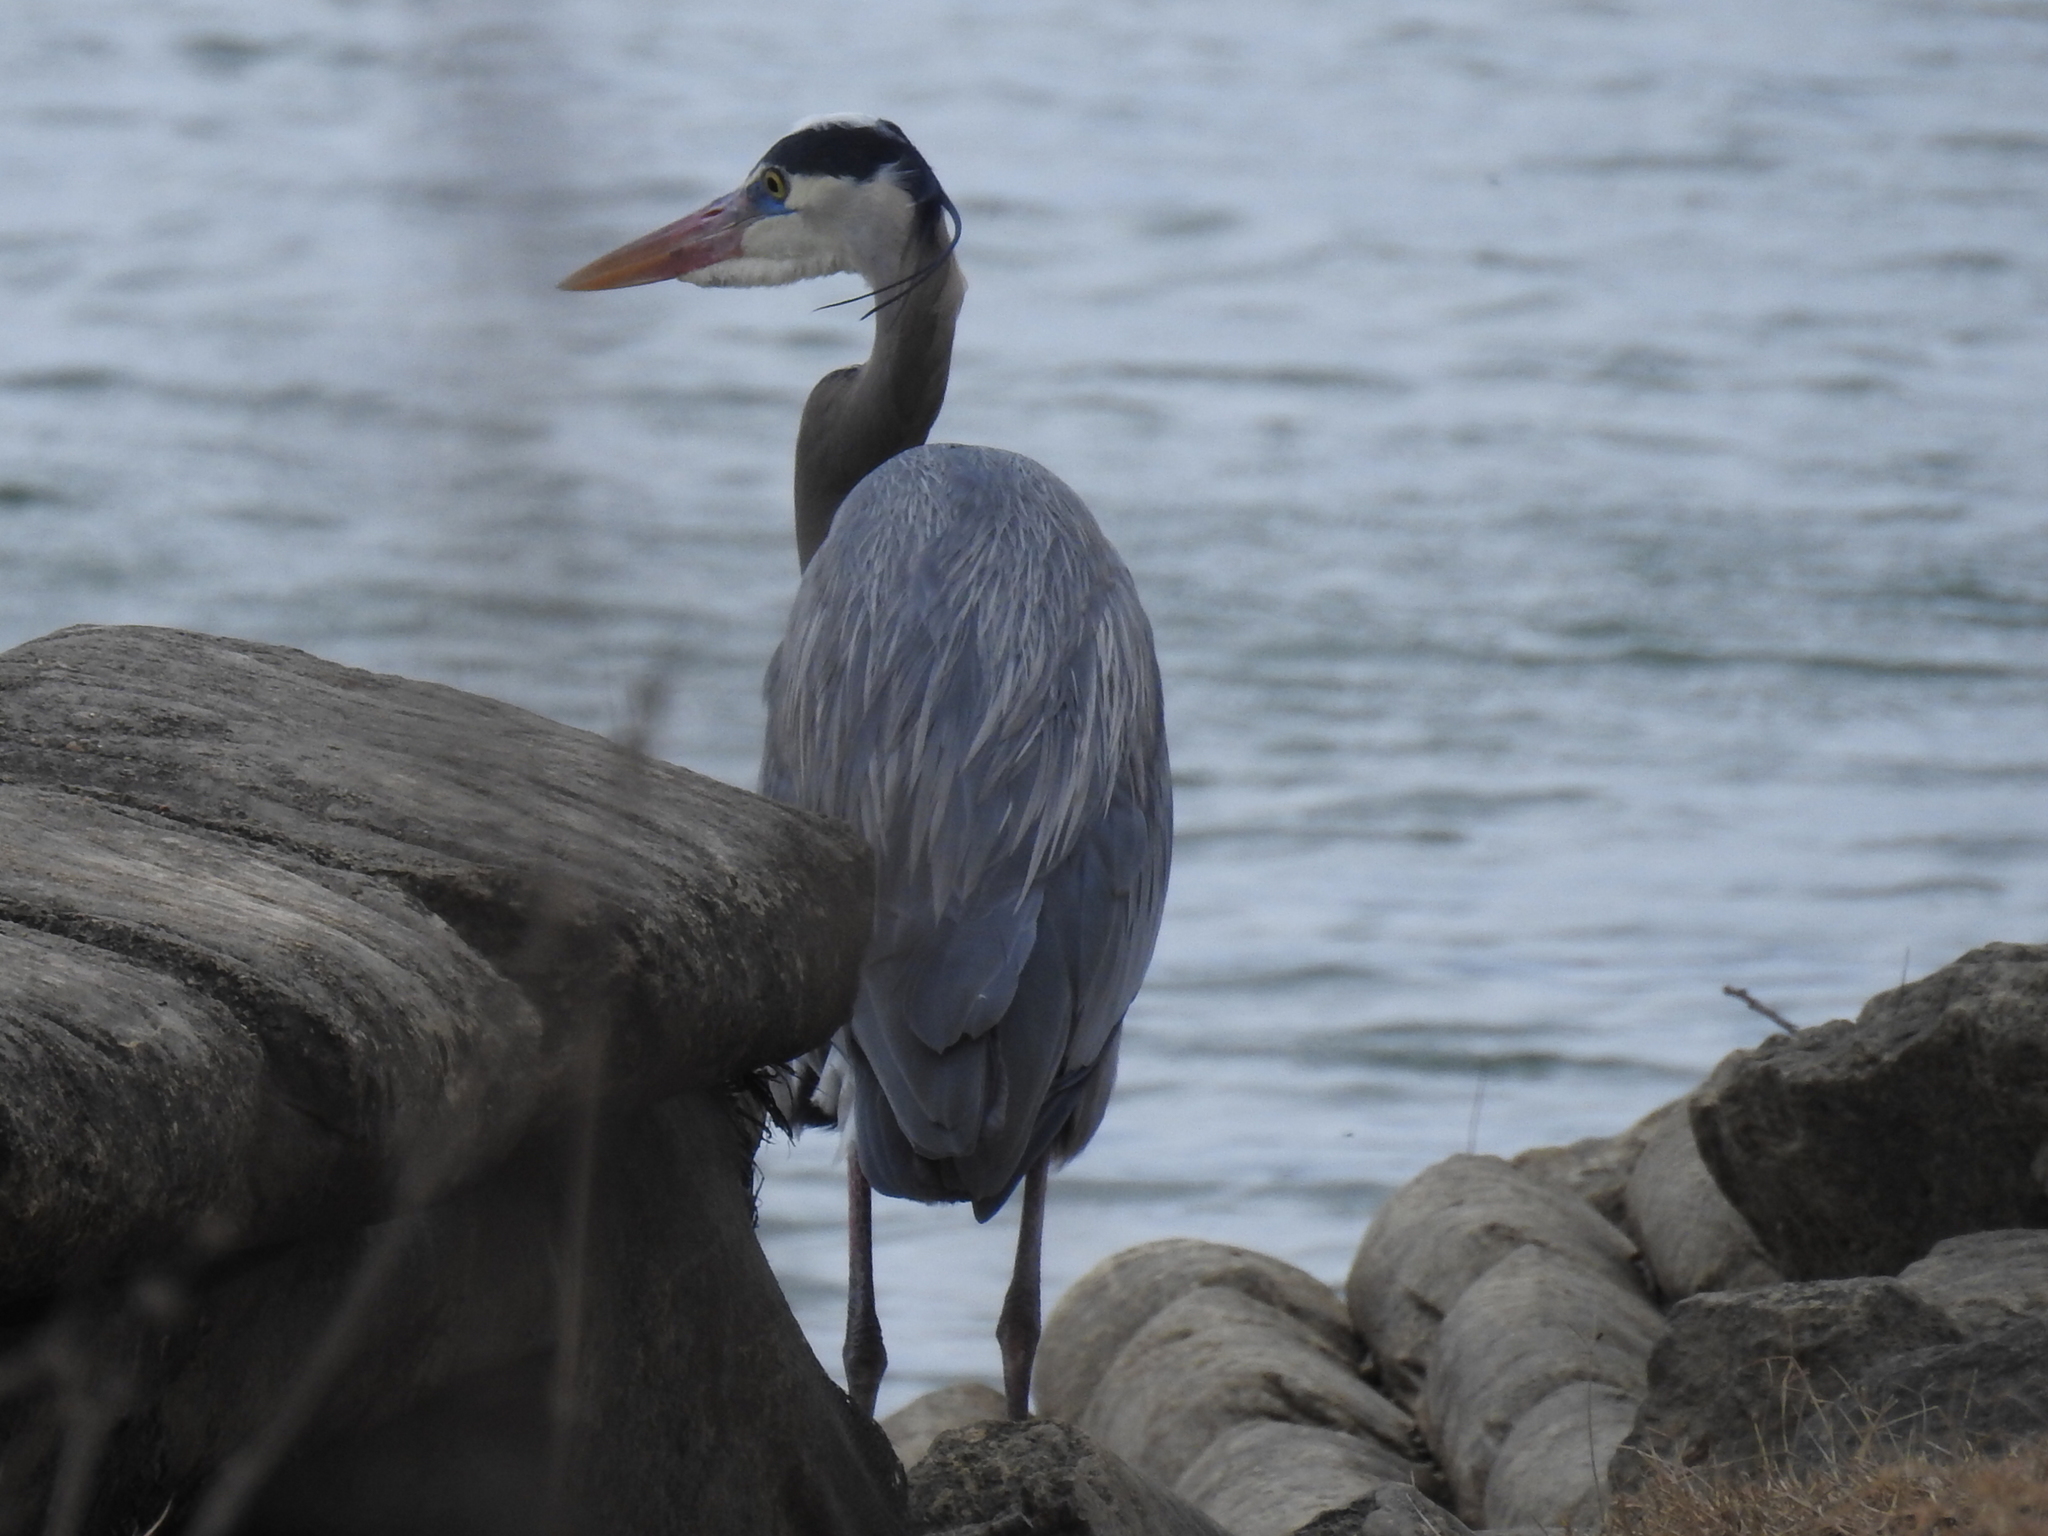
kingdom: Animalia
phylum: Chordata
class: Aves
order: Pelecaniformes
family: Ardeidae
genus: Ardea
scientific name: Ardea herodias
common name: Great blue heron
